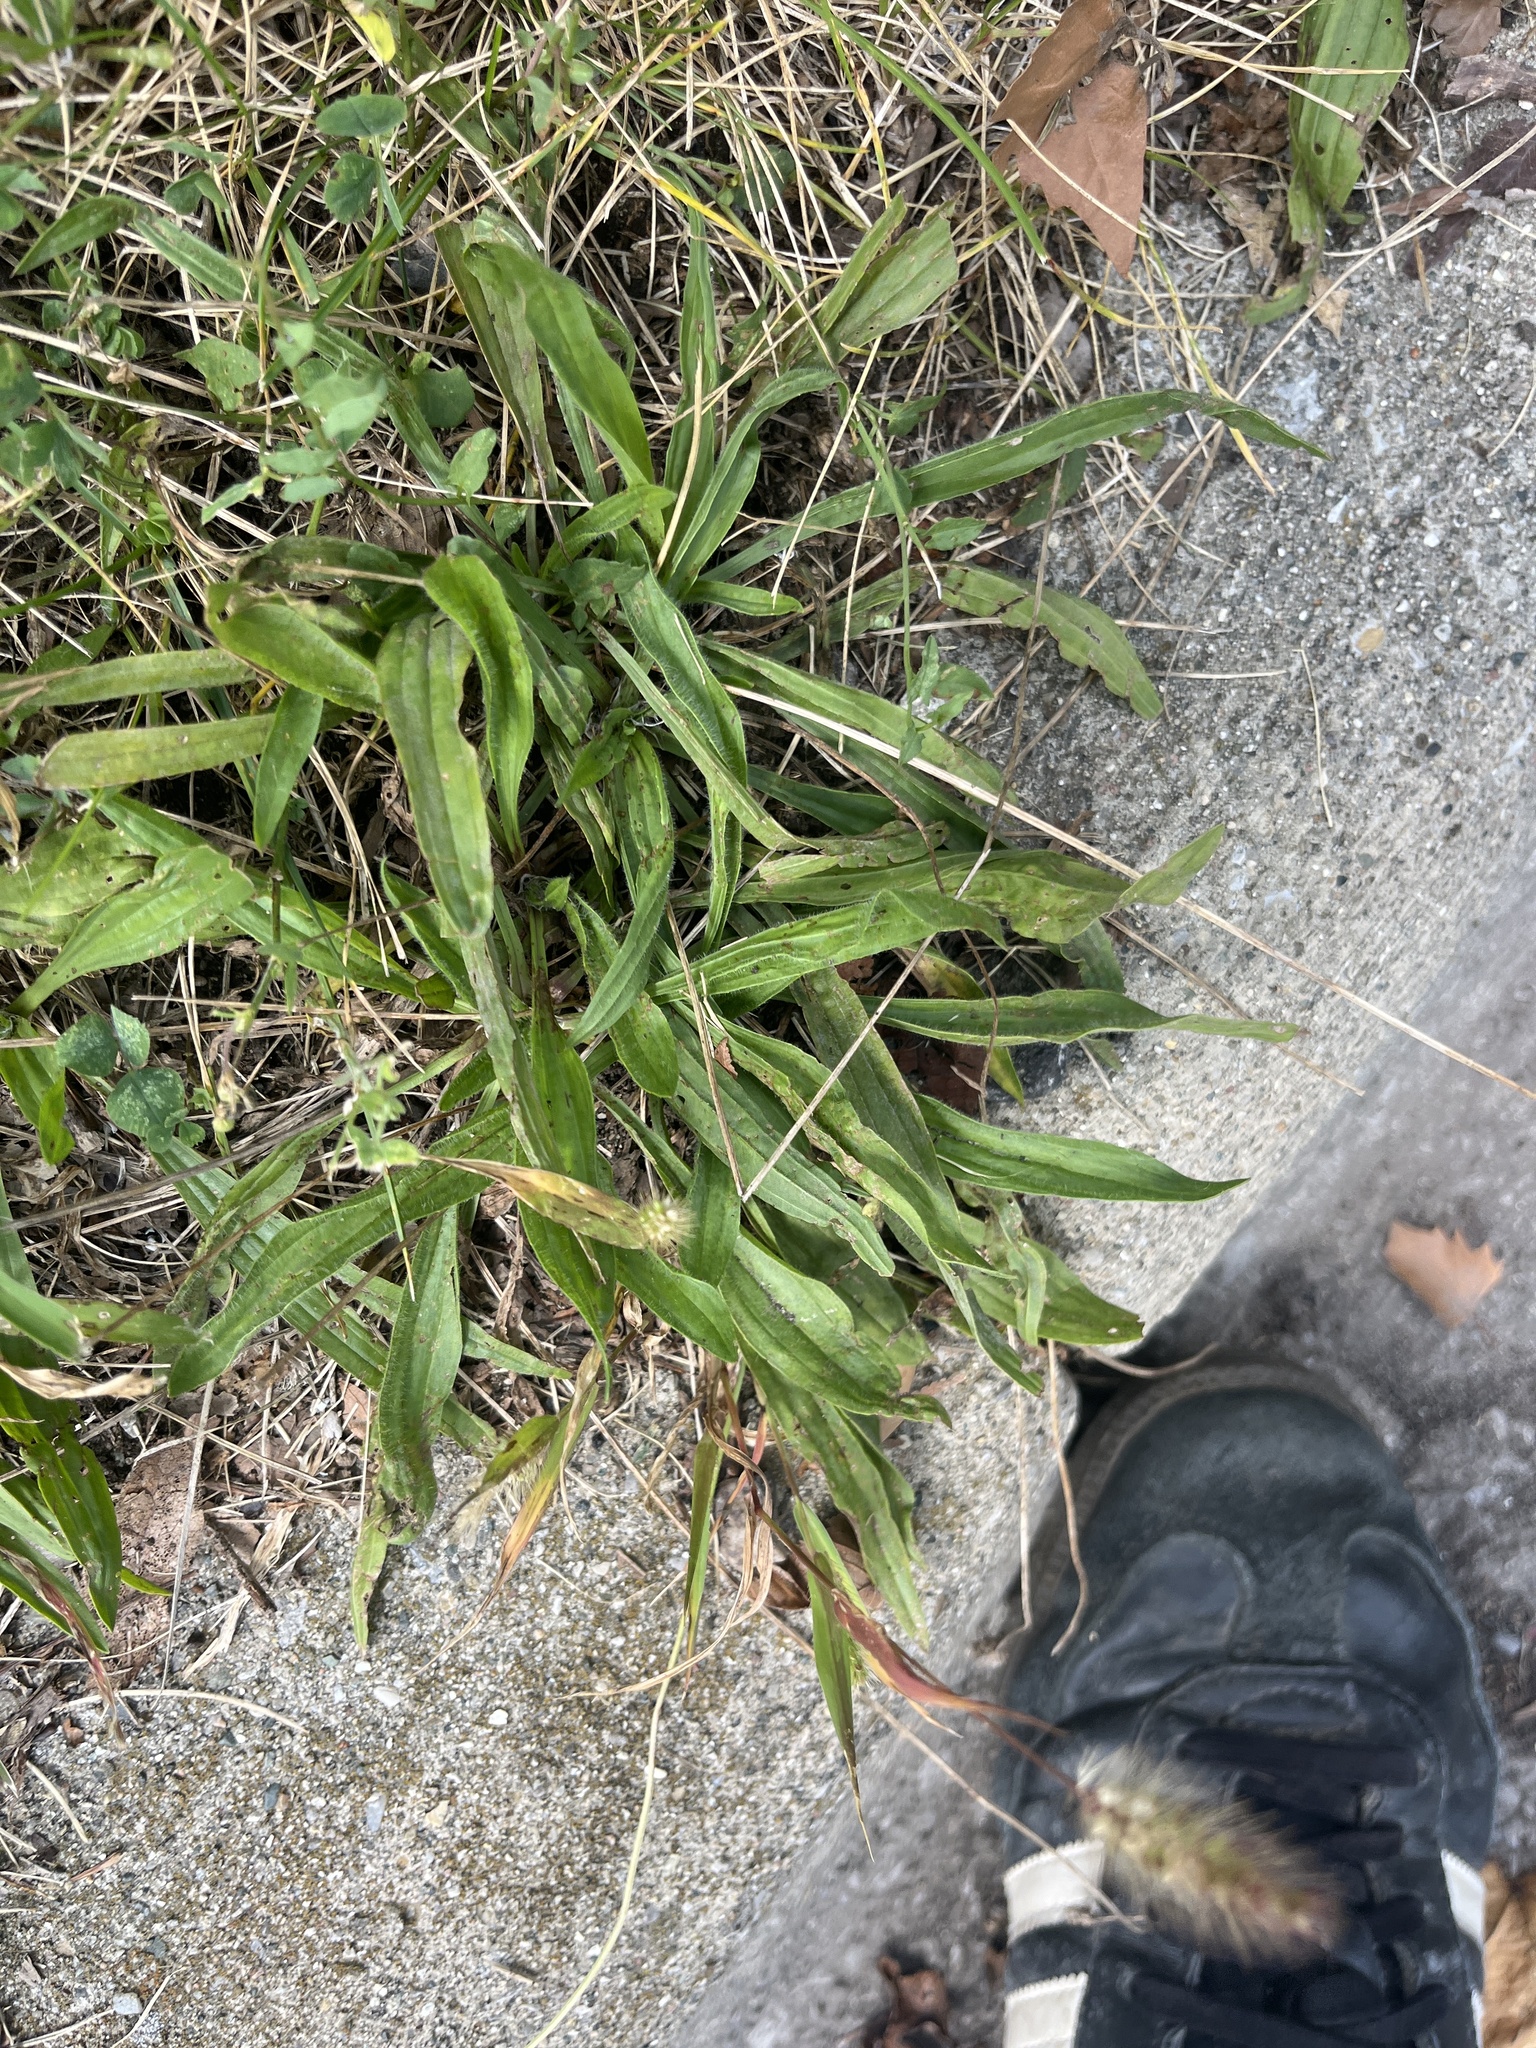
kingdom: Plantae
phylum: Tracheophyta
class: Magnoliopsida
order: Lamiales
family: Plantaginaceae
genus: Plantago
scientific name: Plantago lanceolata
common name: Ribwort plantain
